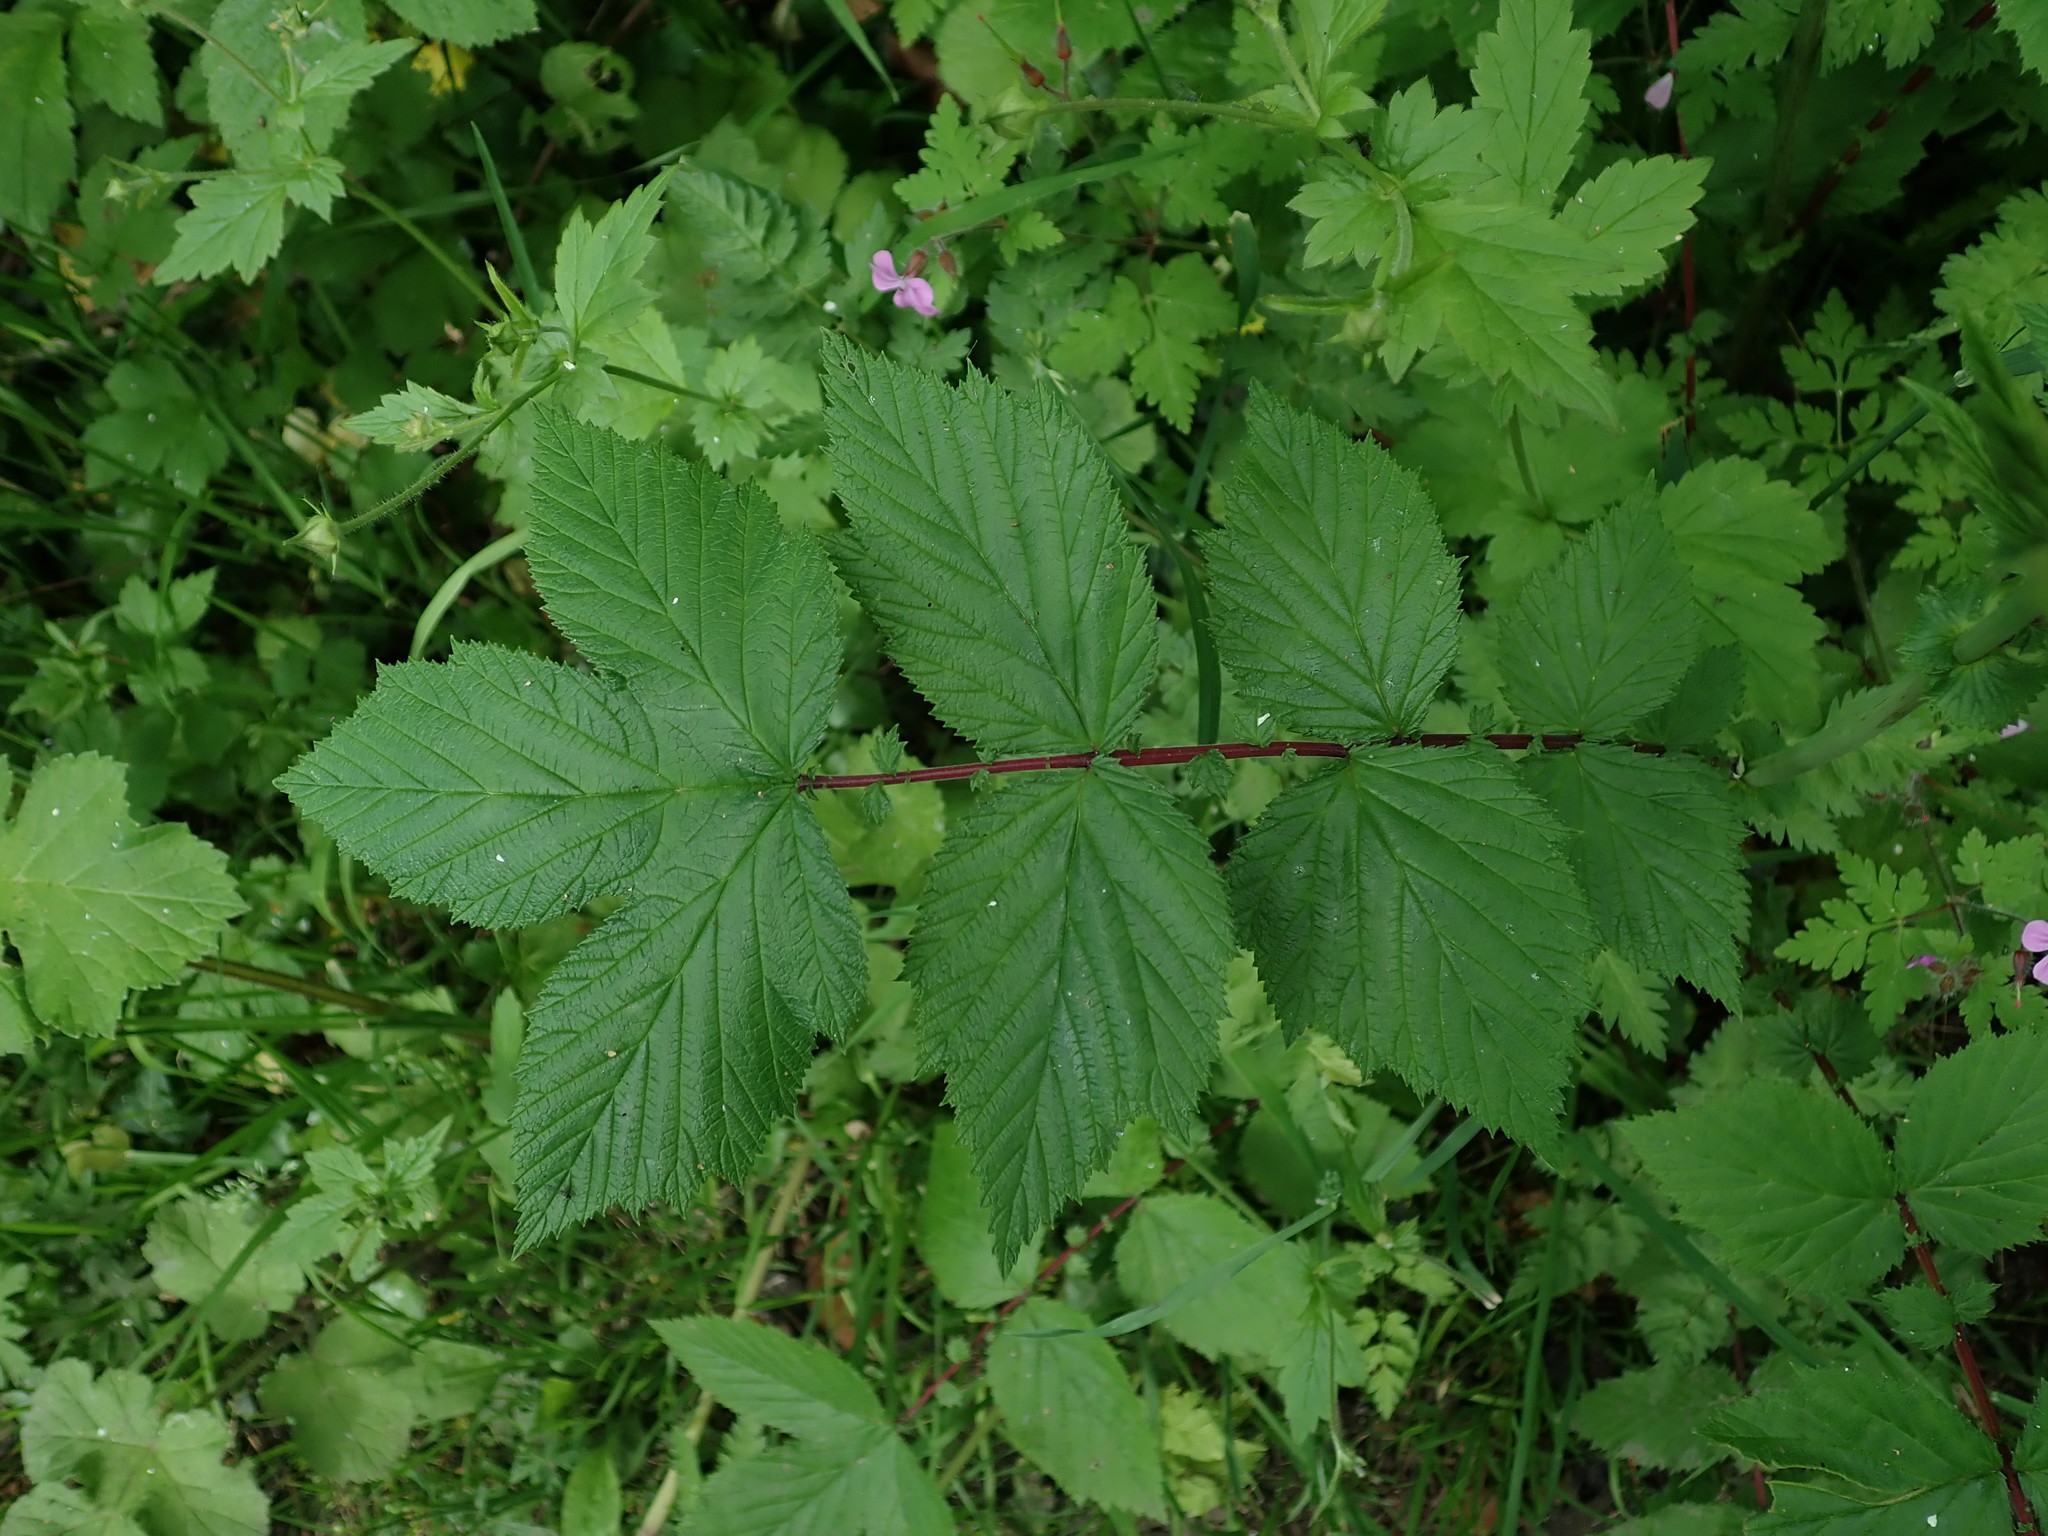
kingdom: Plantae
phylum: Tracheophyta
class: Magnoliopsida
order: Rosales
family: Rosaceae
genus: Filipendula
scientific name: Filipendula ulmaria
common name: Meadowsweet
